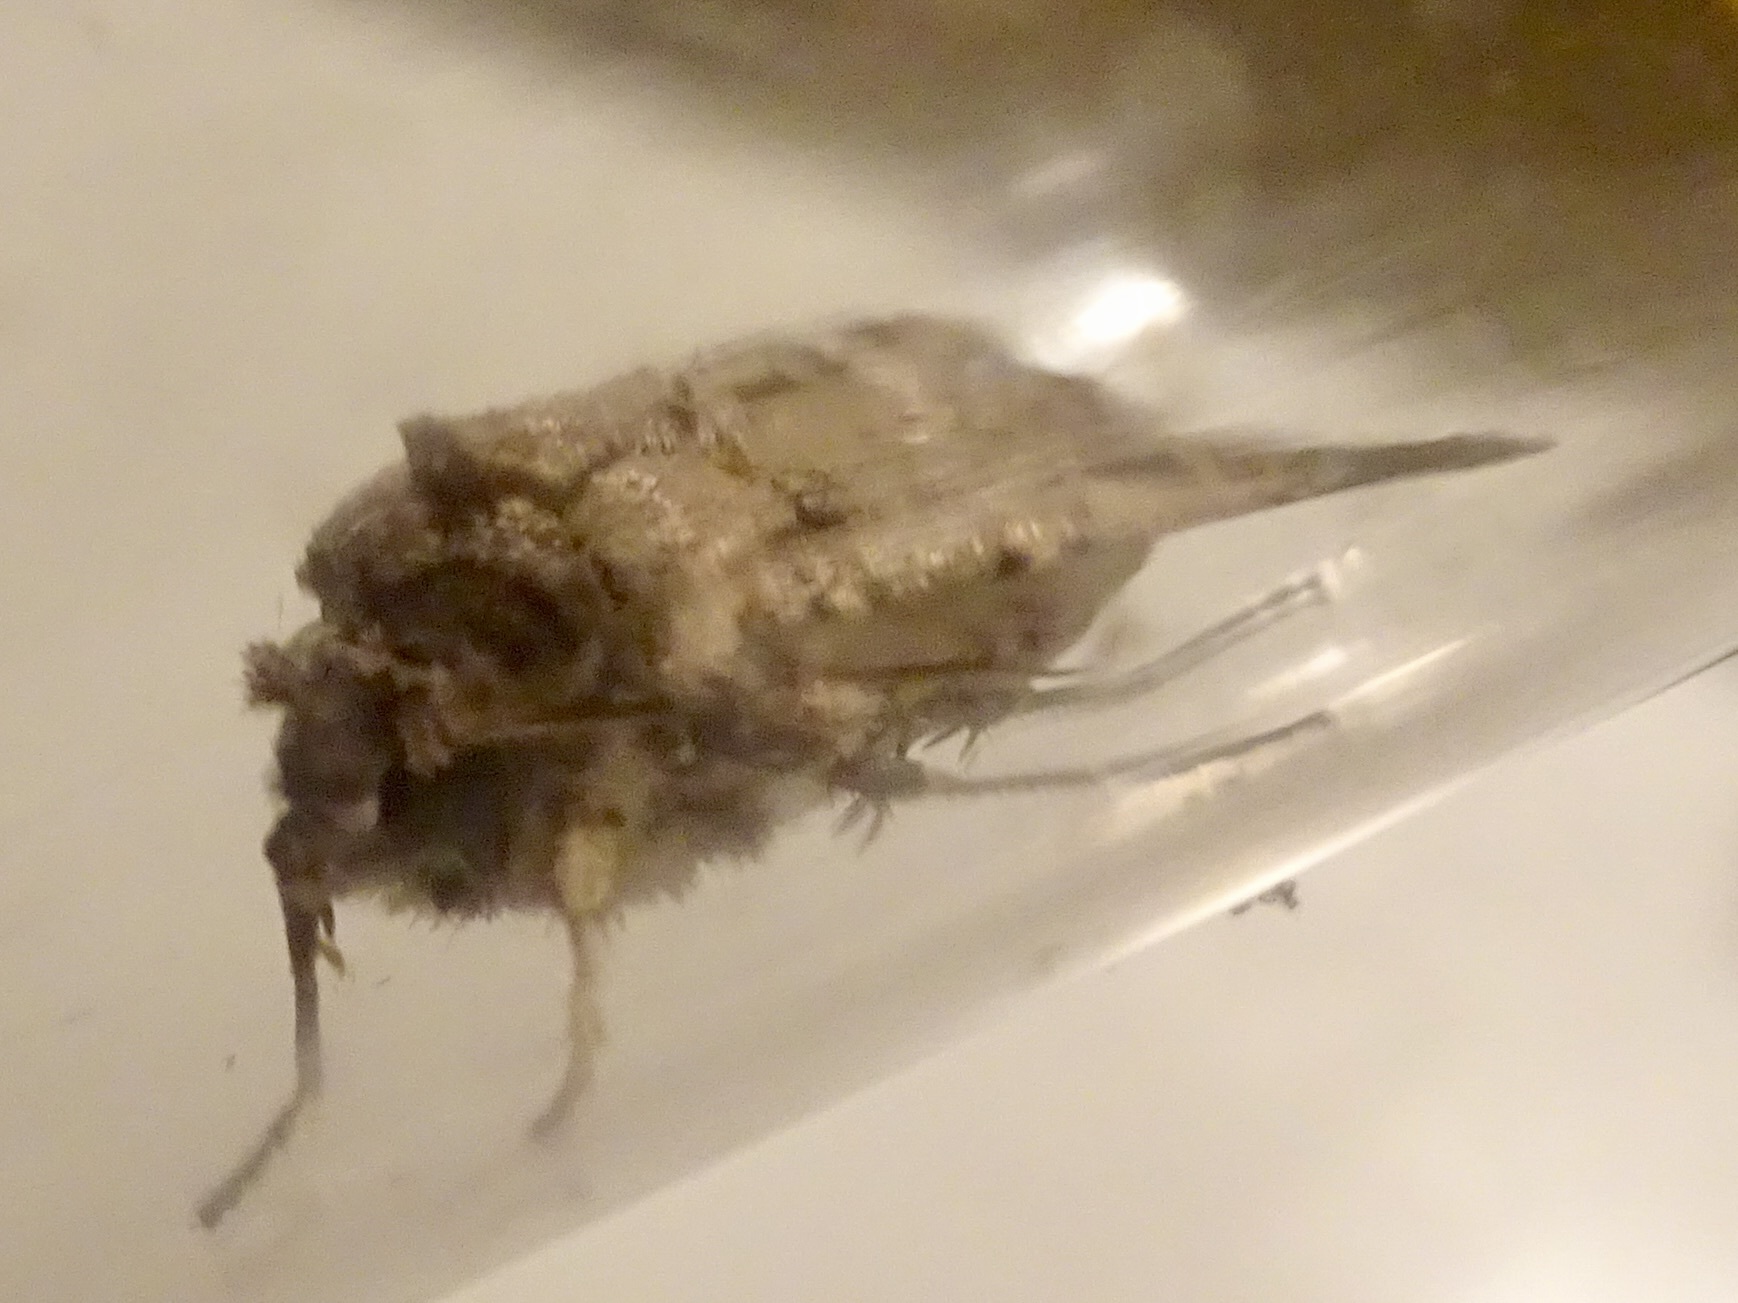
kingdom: Animalia
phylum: Arthropoda
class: Insecta
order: Lepidoptera
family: Noctuidae
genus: Feltia
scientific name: Feltia subterranea
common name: Granulate cutworm
